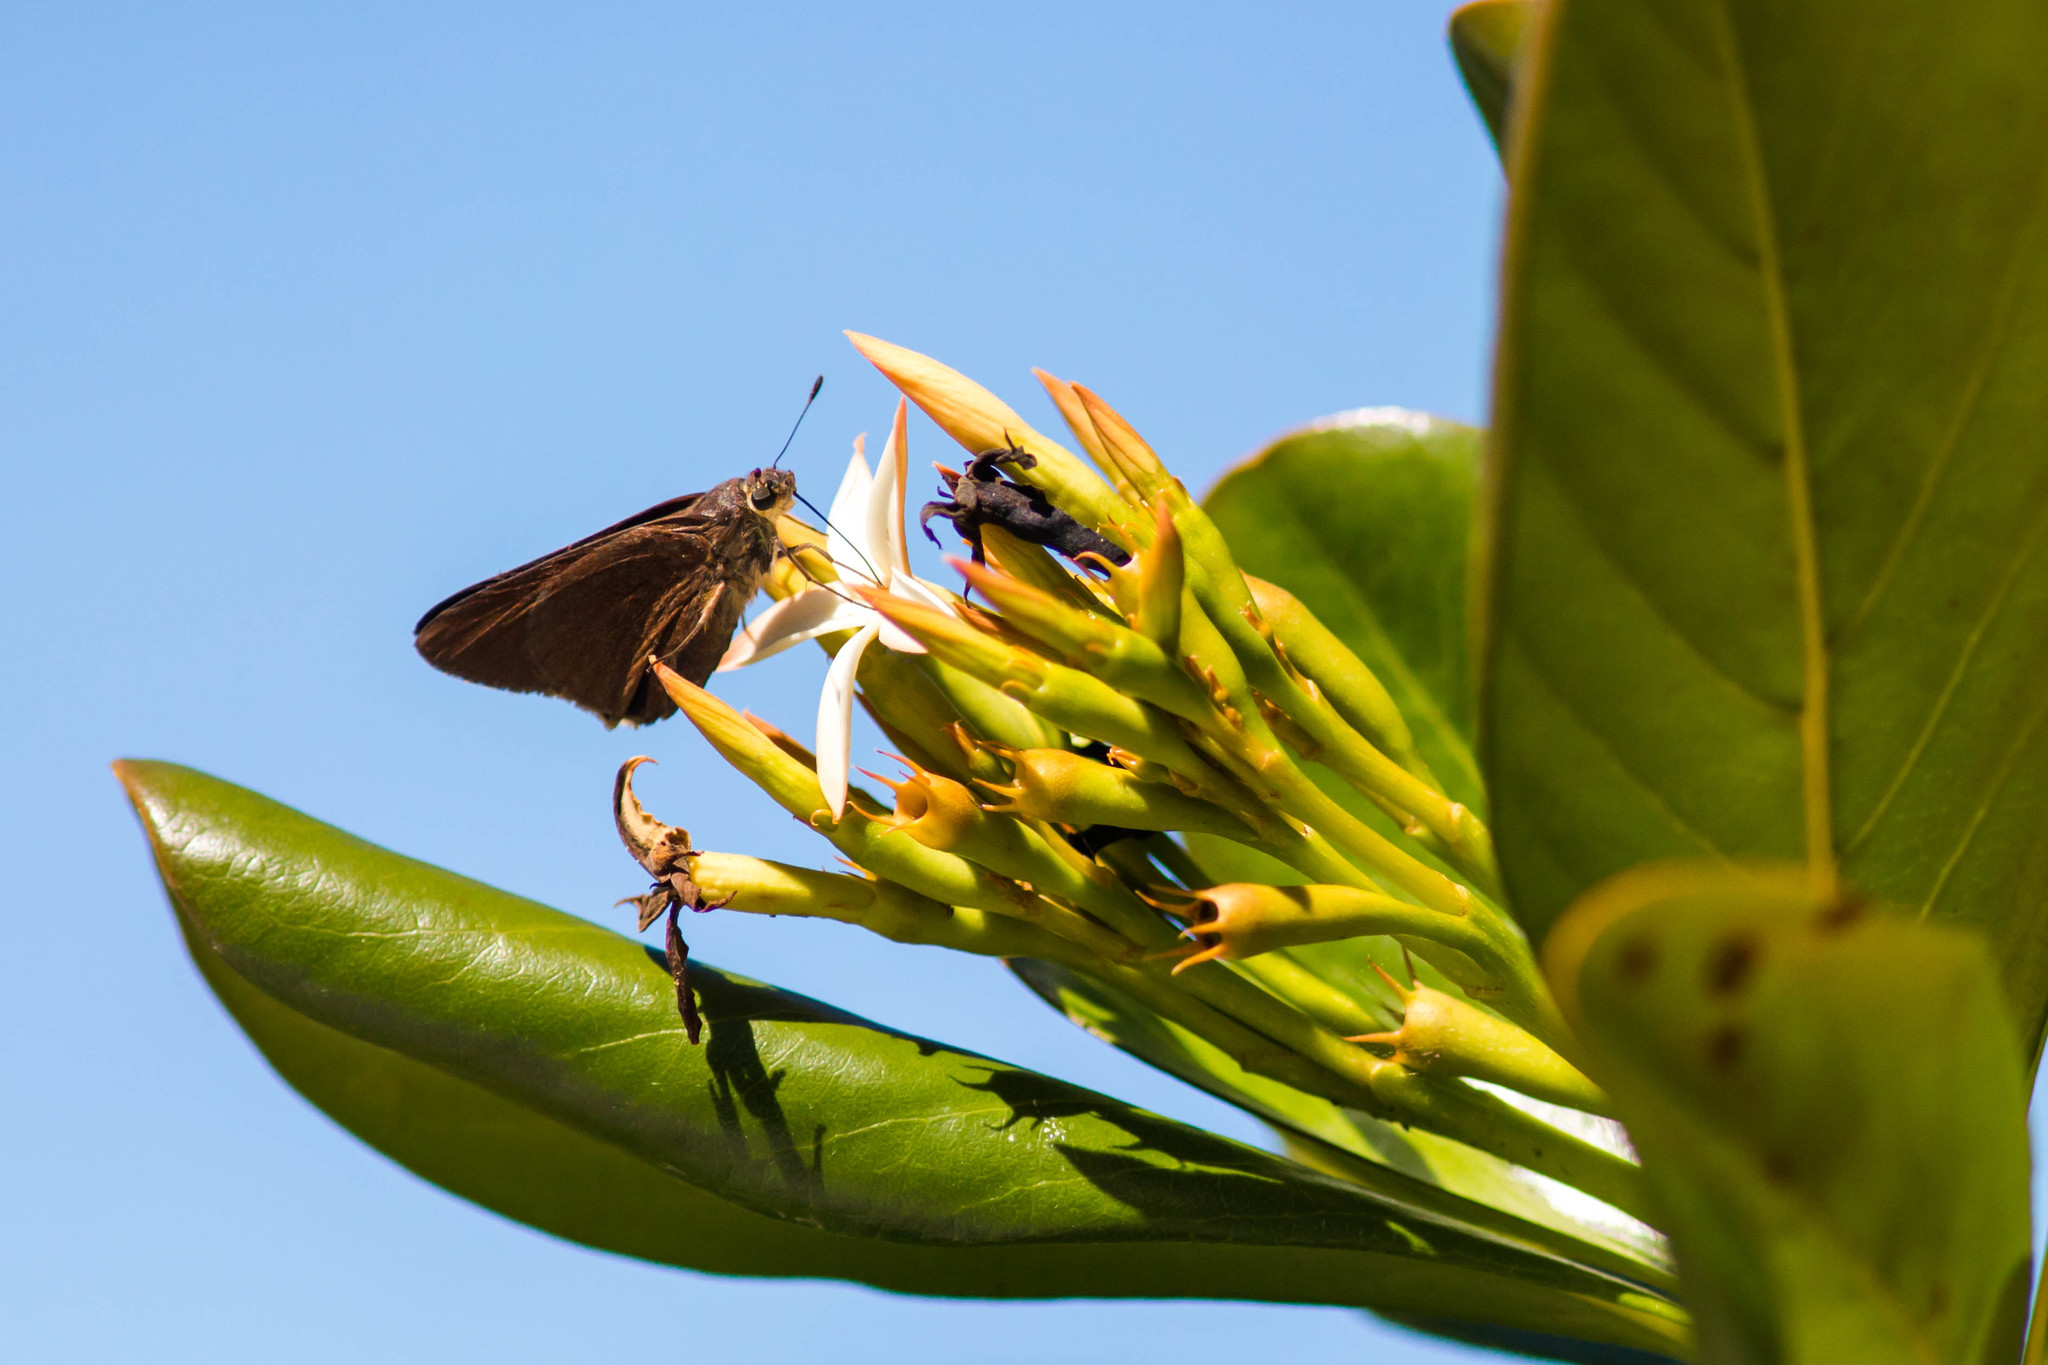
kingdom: Animalia
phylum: Arthropoda
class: Insecta
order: Lepidoptera
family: Hesperiidae
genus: Asbolis
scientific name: Asbolis capucinus
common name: Monk skipper
